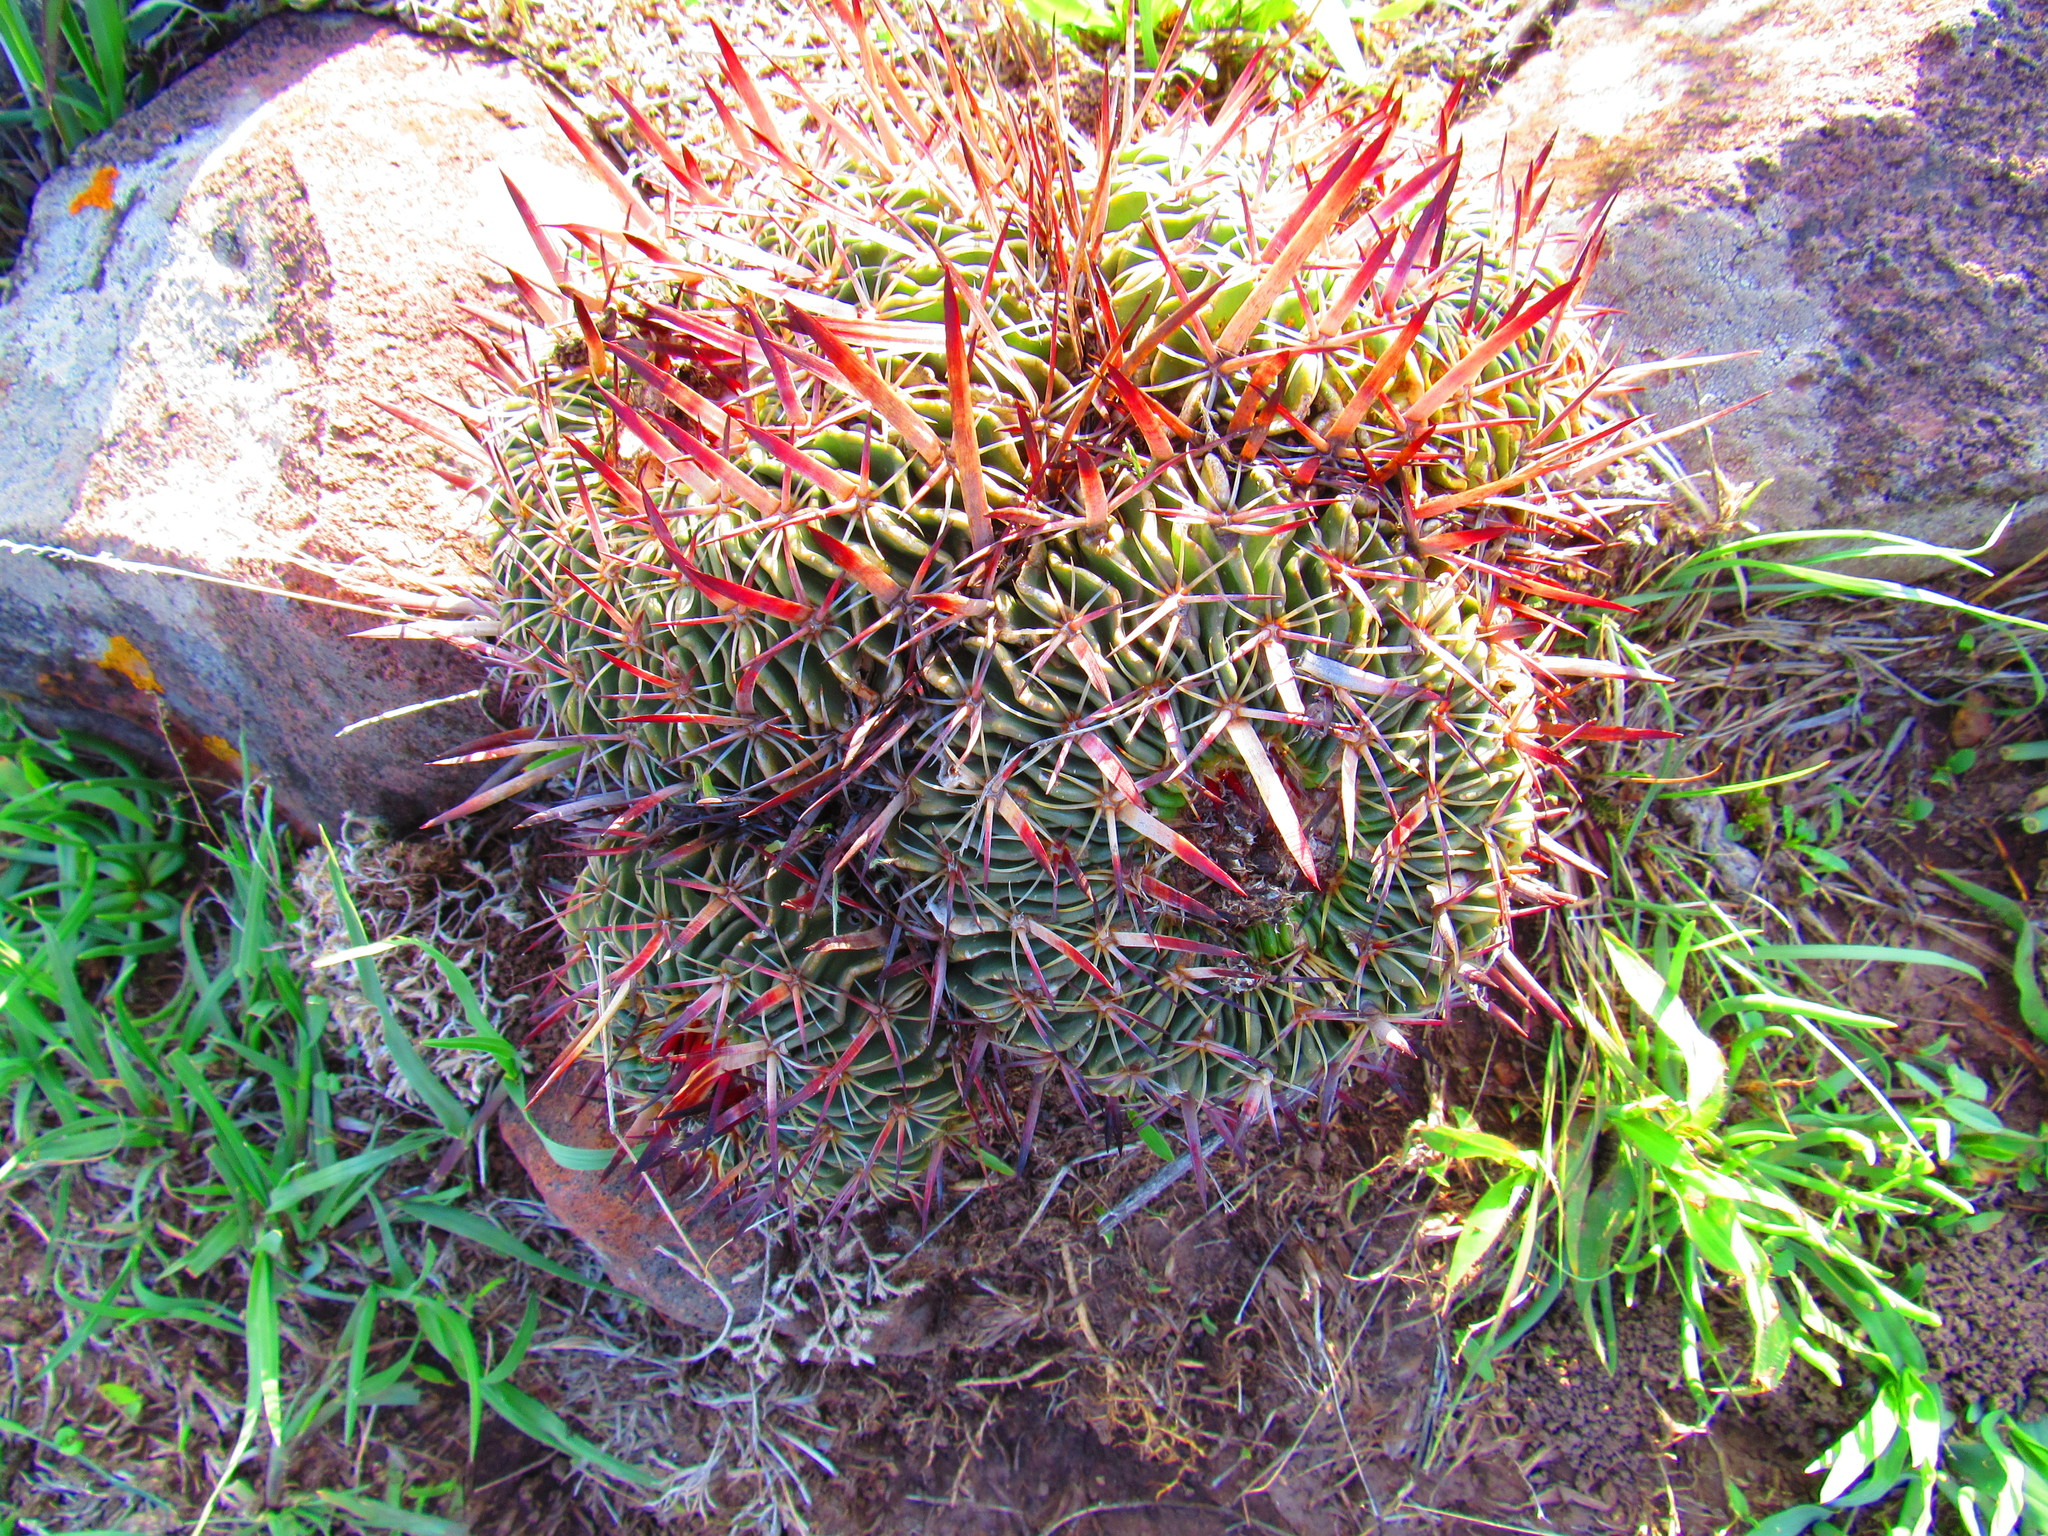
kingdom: Plantae
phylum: Tracheophyta
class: Magnoliopsida
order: Caryophyllales
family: Cactaceae
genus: Stenocactus
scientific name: Stenocactus crispatus
